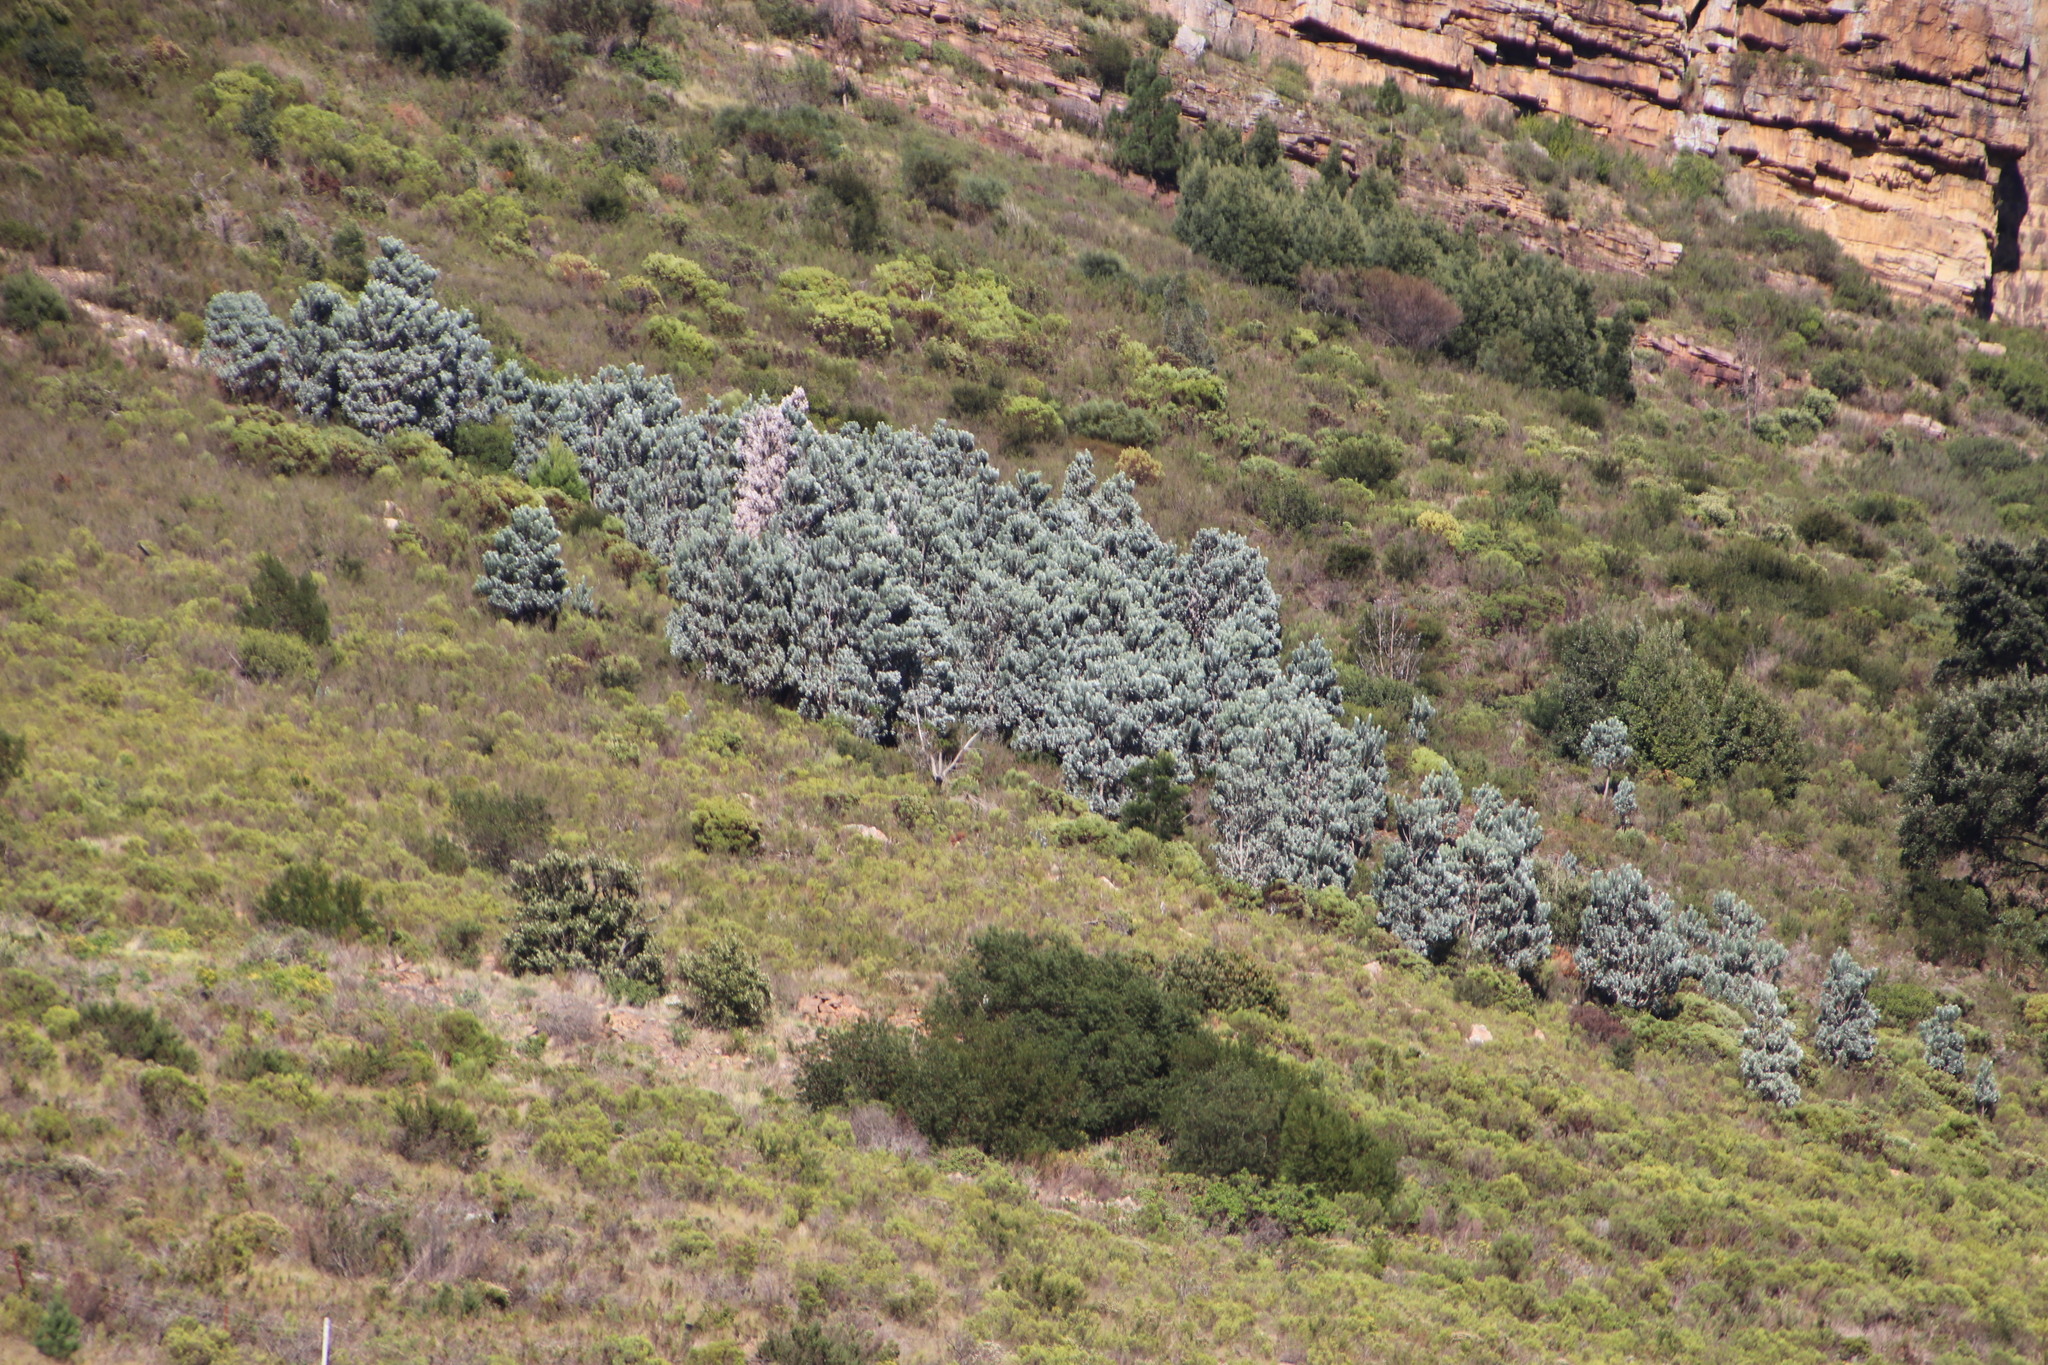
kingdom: Plantae
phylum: Tracheophyta
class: Magnoliopsida
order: Proteales
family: Proteaceae
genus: Leucadendron
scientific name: Leucadendron argenteum
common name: Cape silver tree
